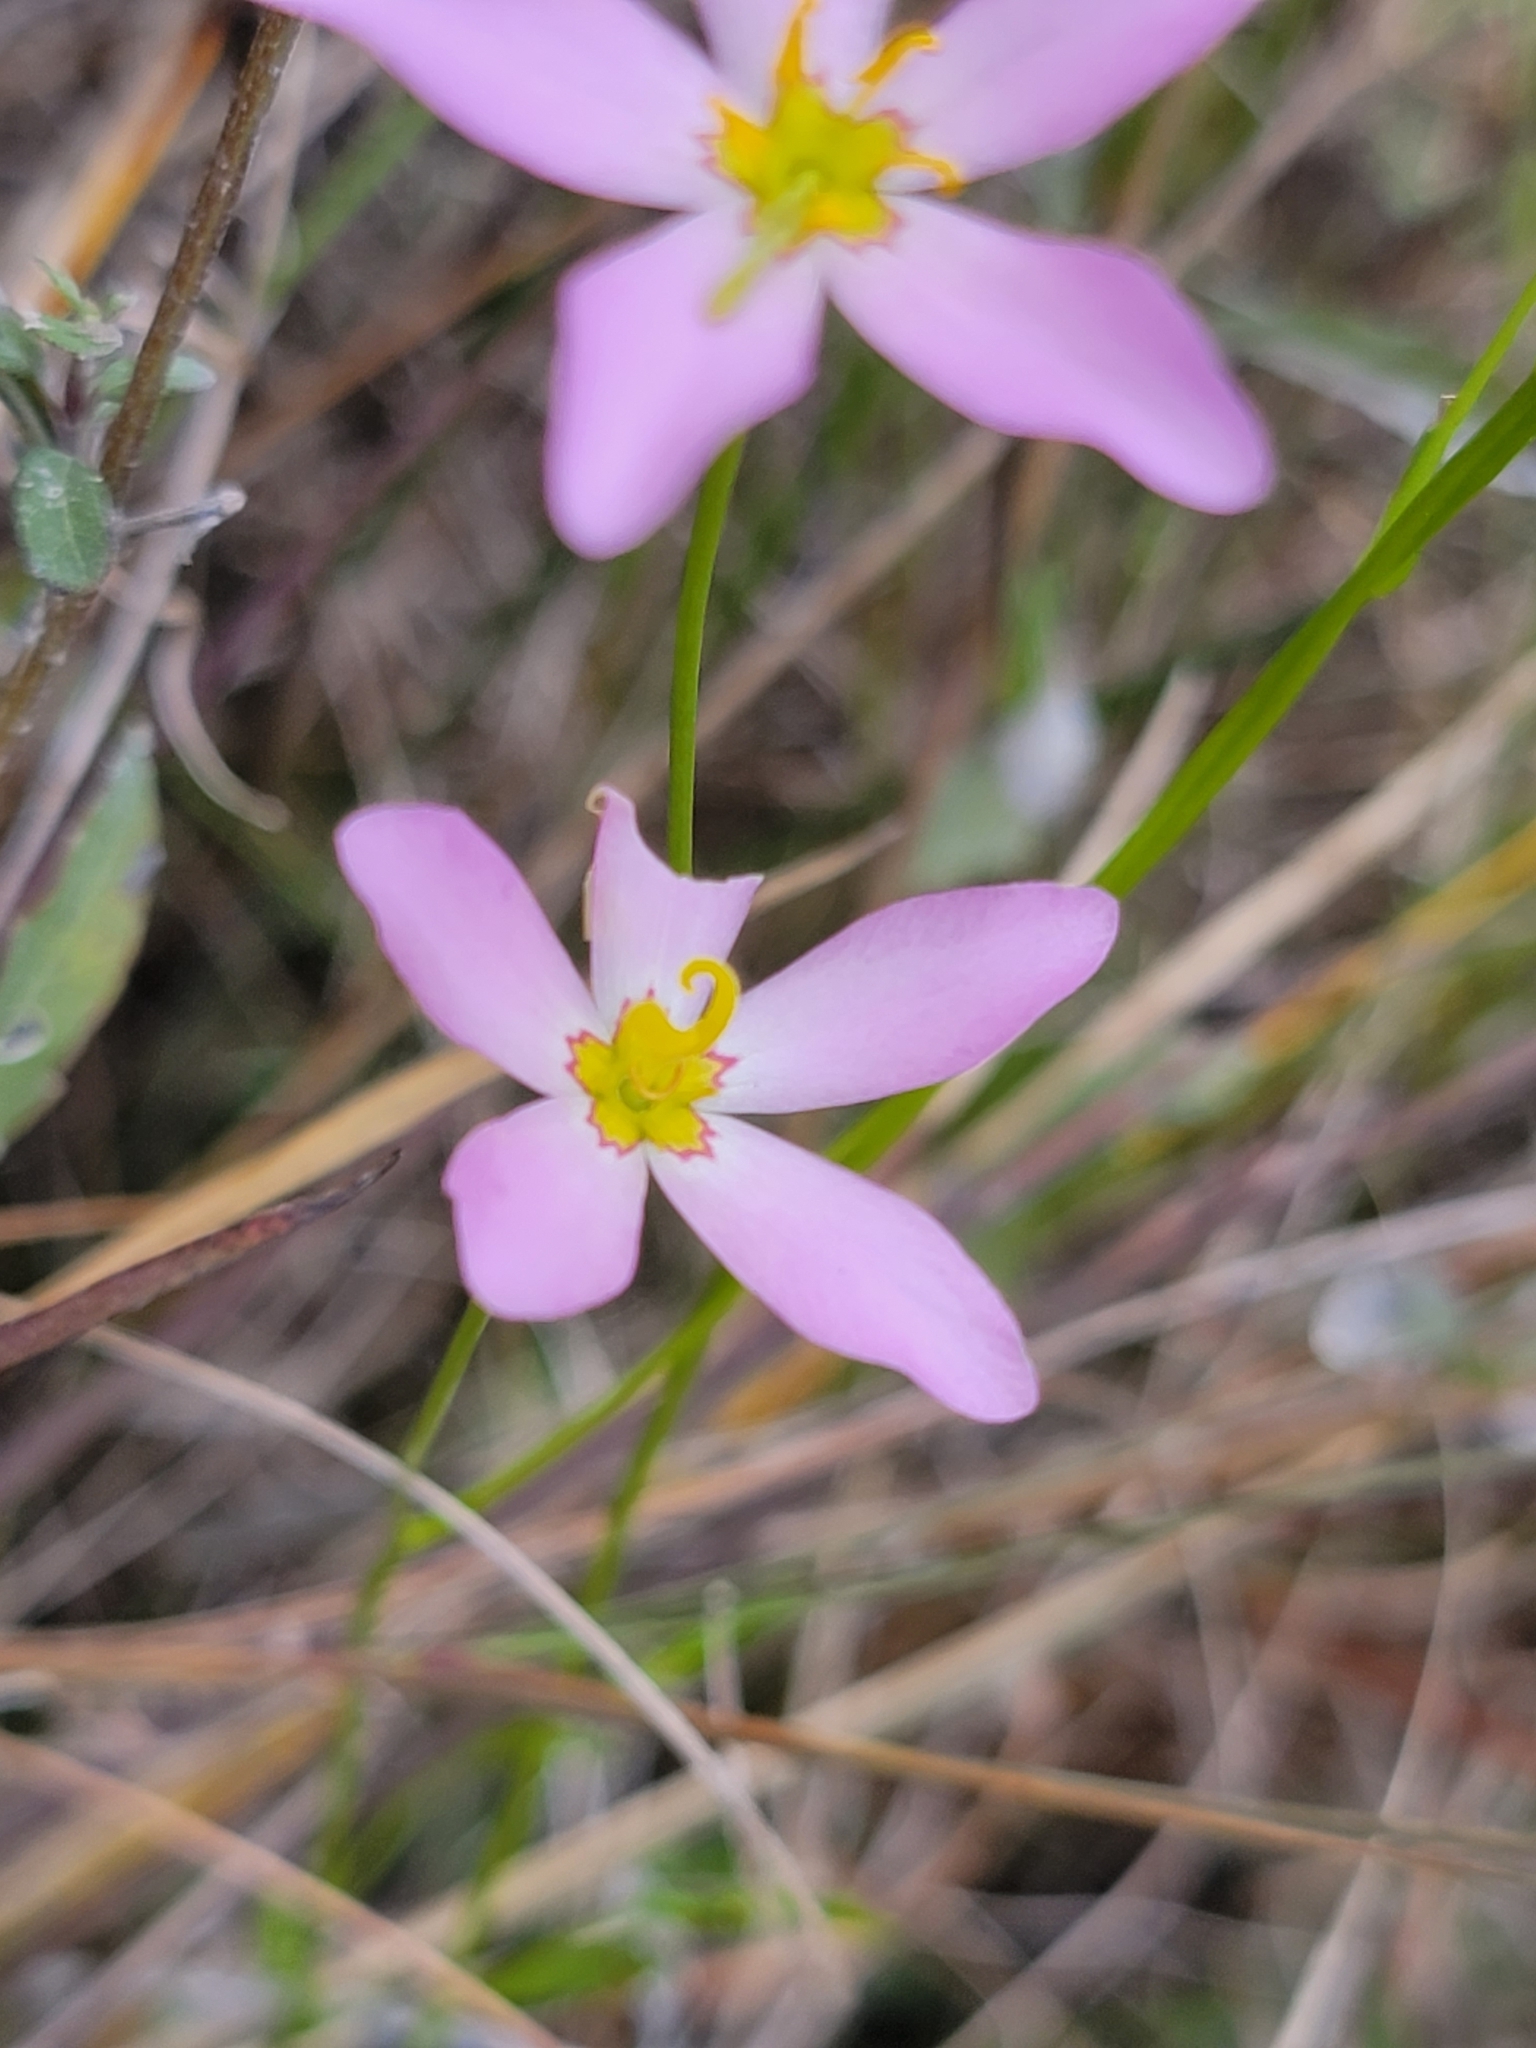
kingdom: Plantae
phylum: Tracheophyta
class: Magnoliopsida
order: Gentianales
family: Gentianaceae
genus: Sabatia
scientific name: Sabatia stellaris
